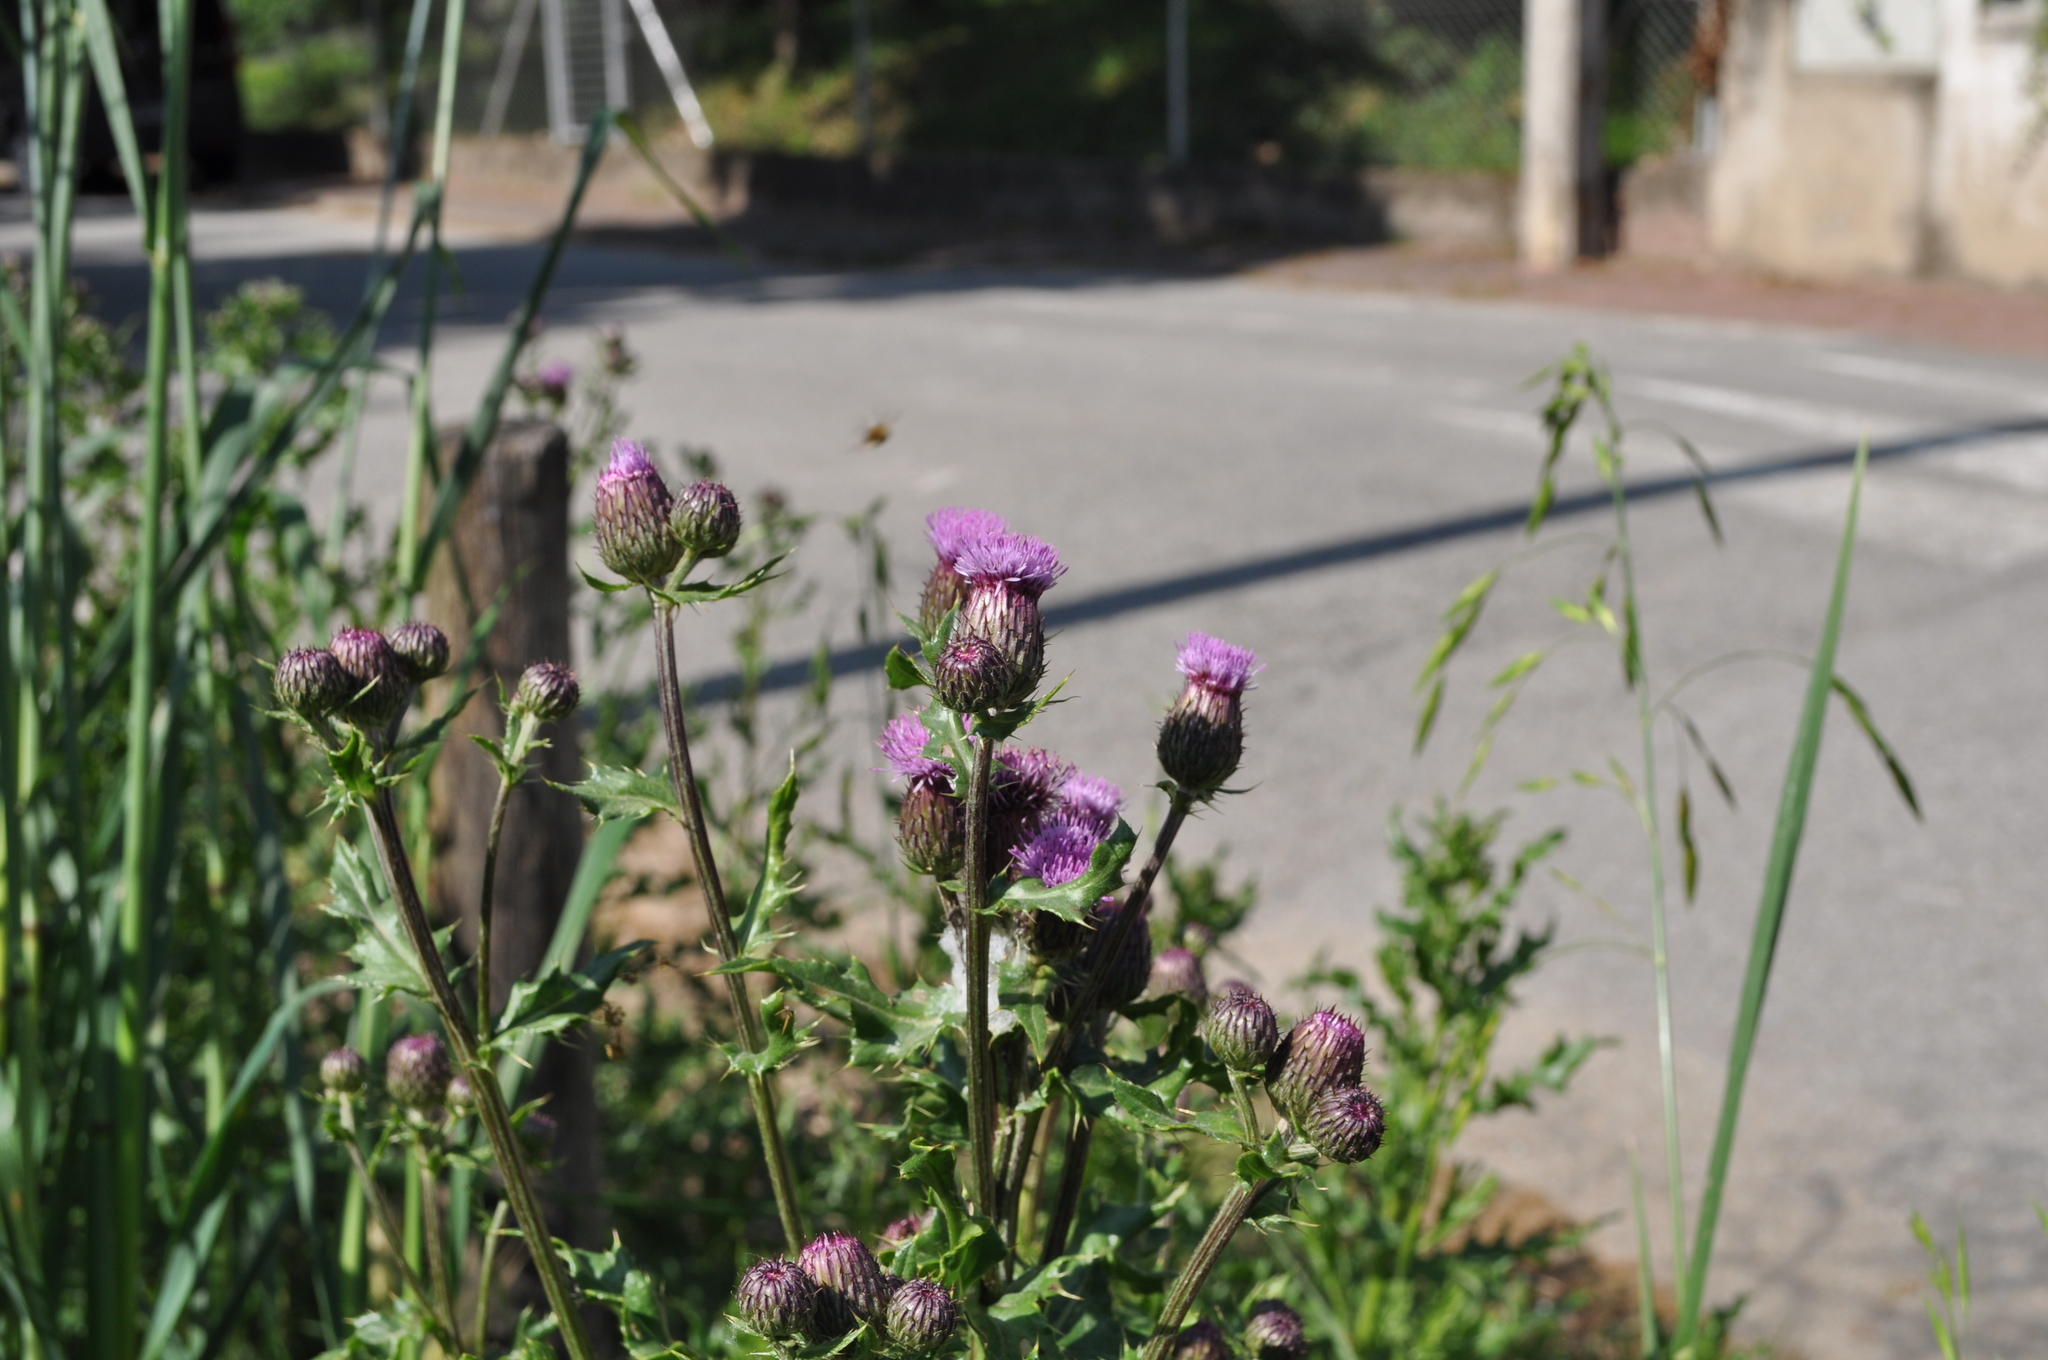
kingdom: Plantae
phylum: Tracheophyta
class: Magnoliopsida
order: Asterales
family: Asteraceae
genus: Cirsium
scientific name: Cirsium arvense
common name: Creeping thistle
